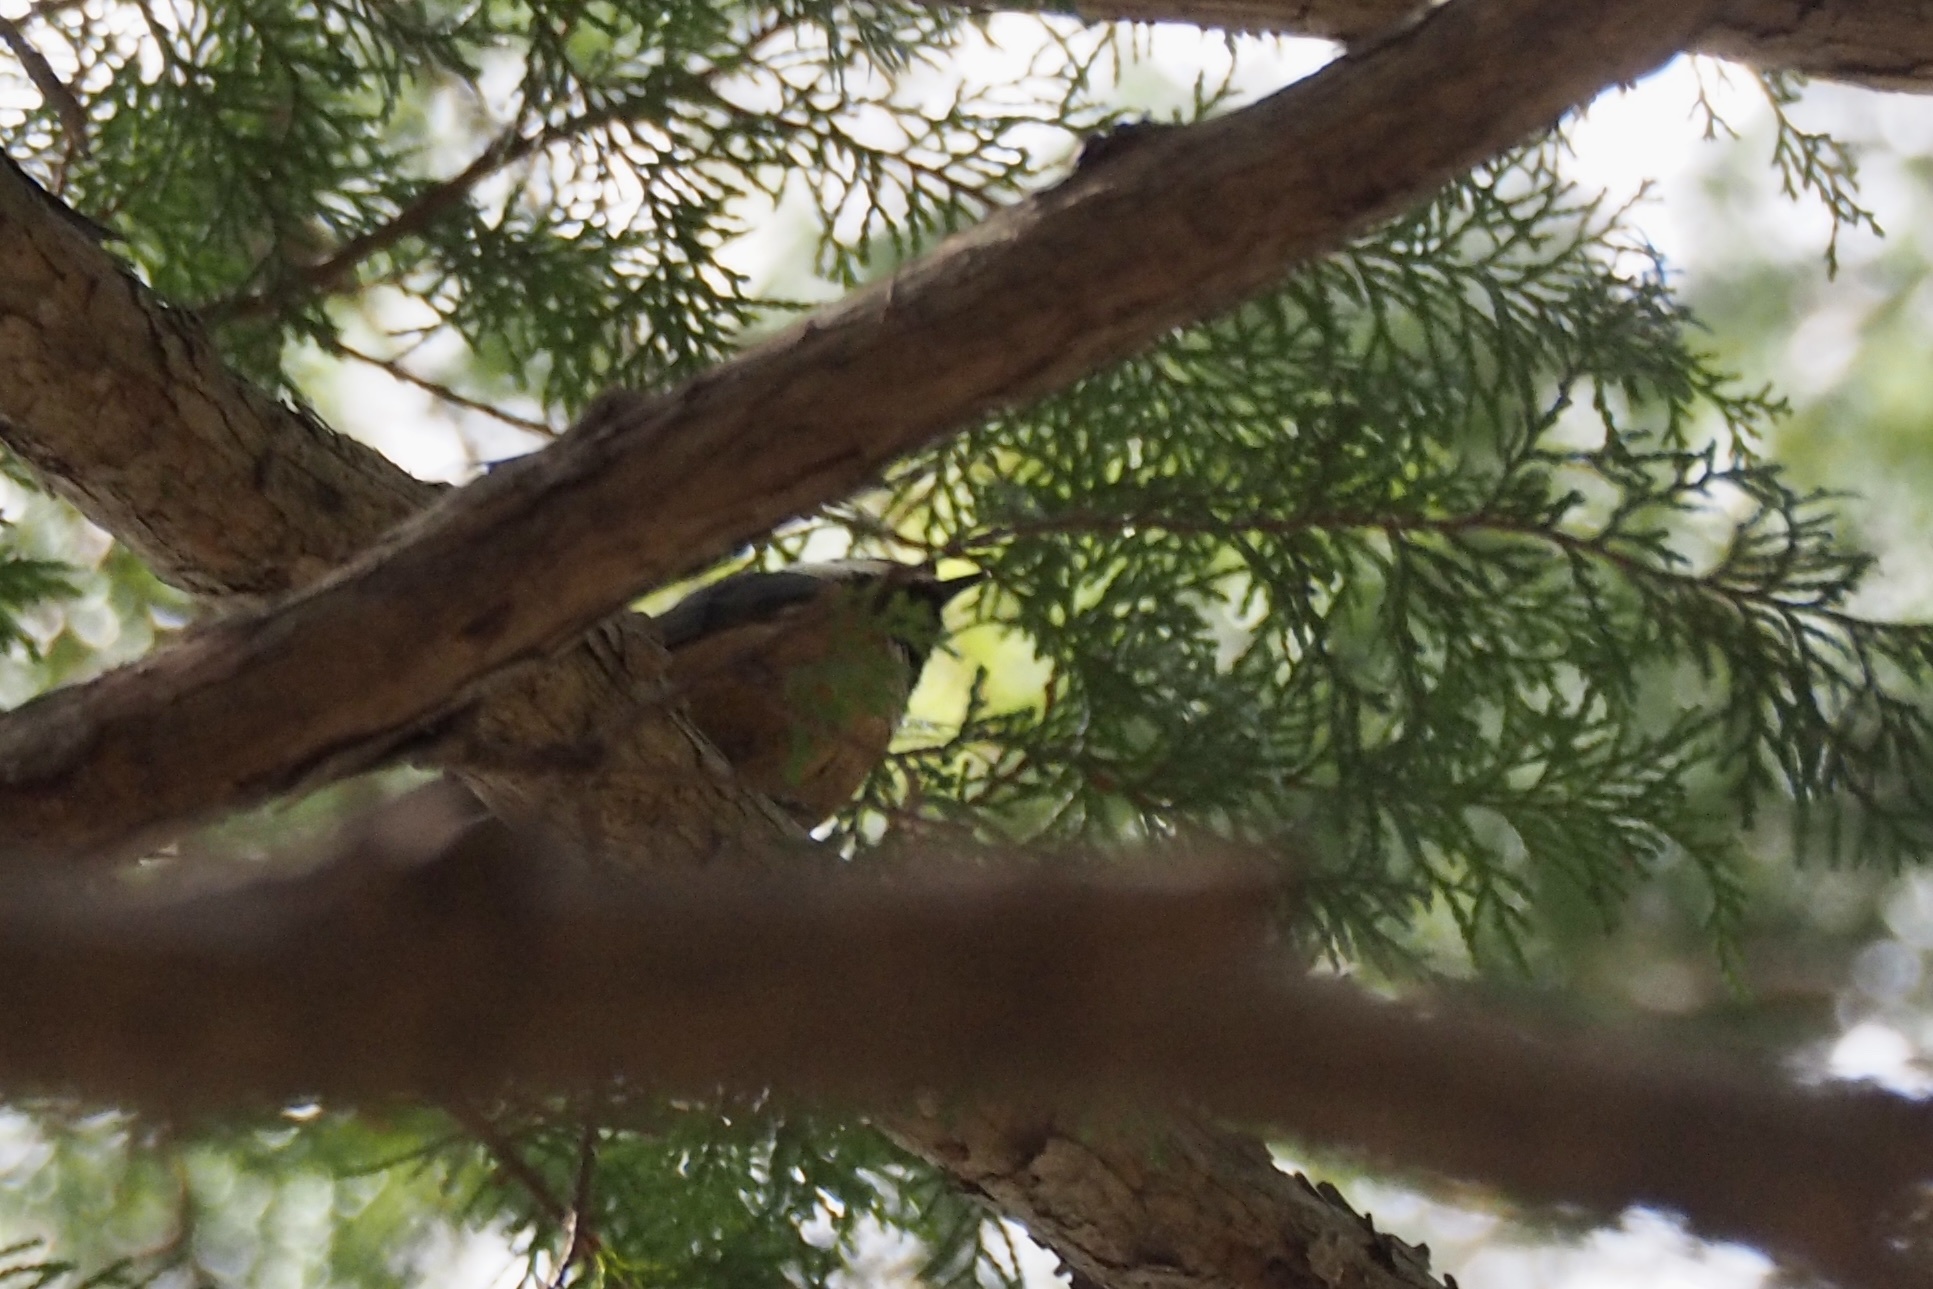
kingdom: Animalia
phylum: Chordata
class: Aves
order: Passeriformes
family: Paridae
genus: Poecile
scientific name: Poecile varius
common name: Varied tit
